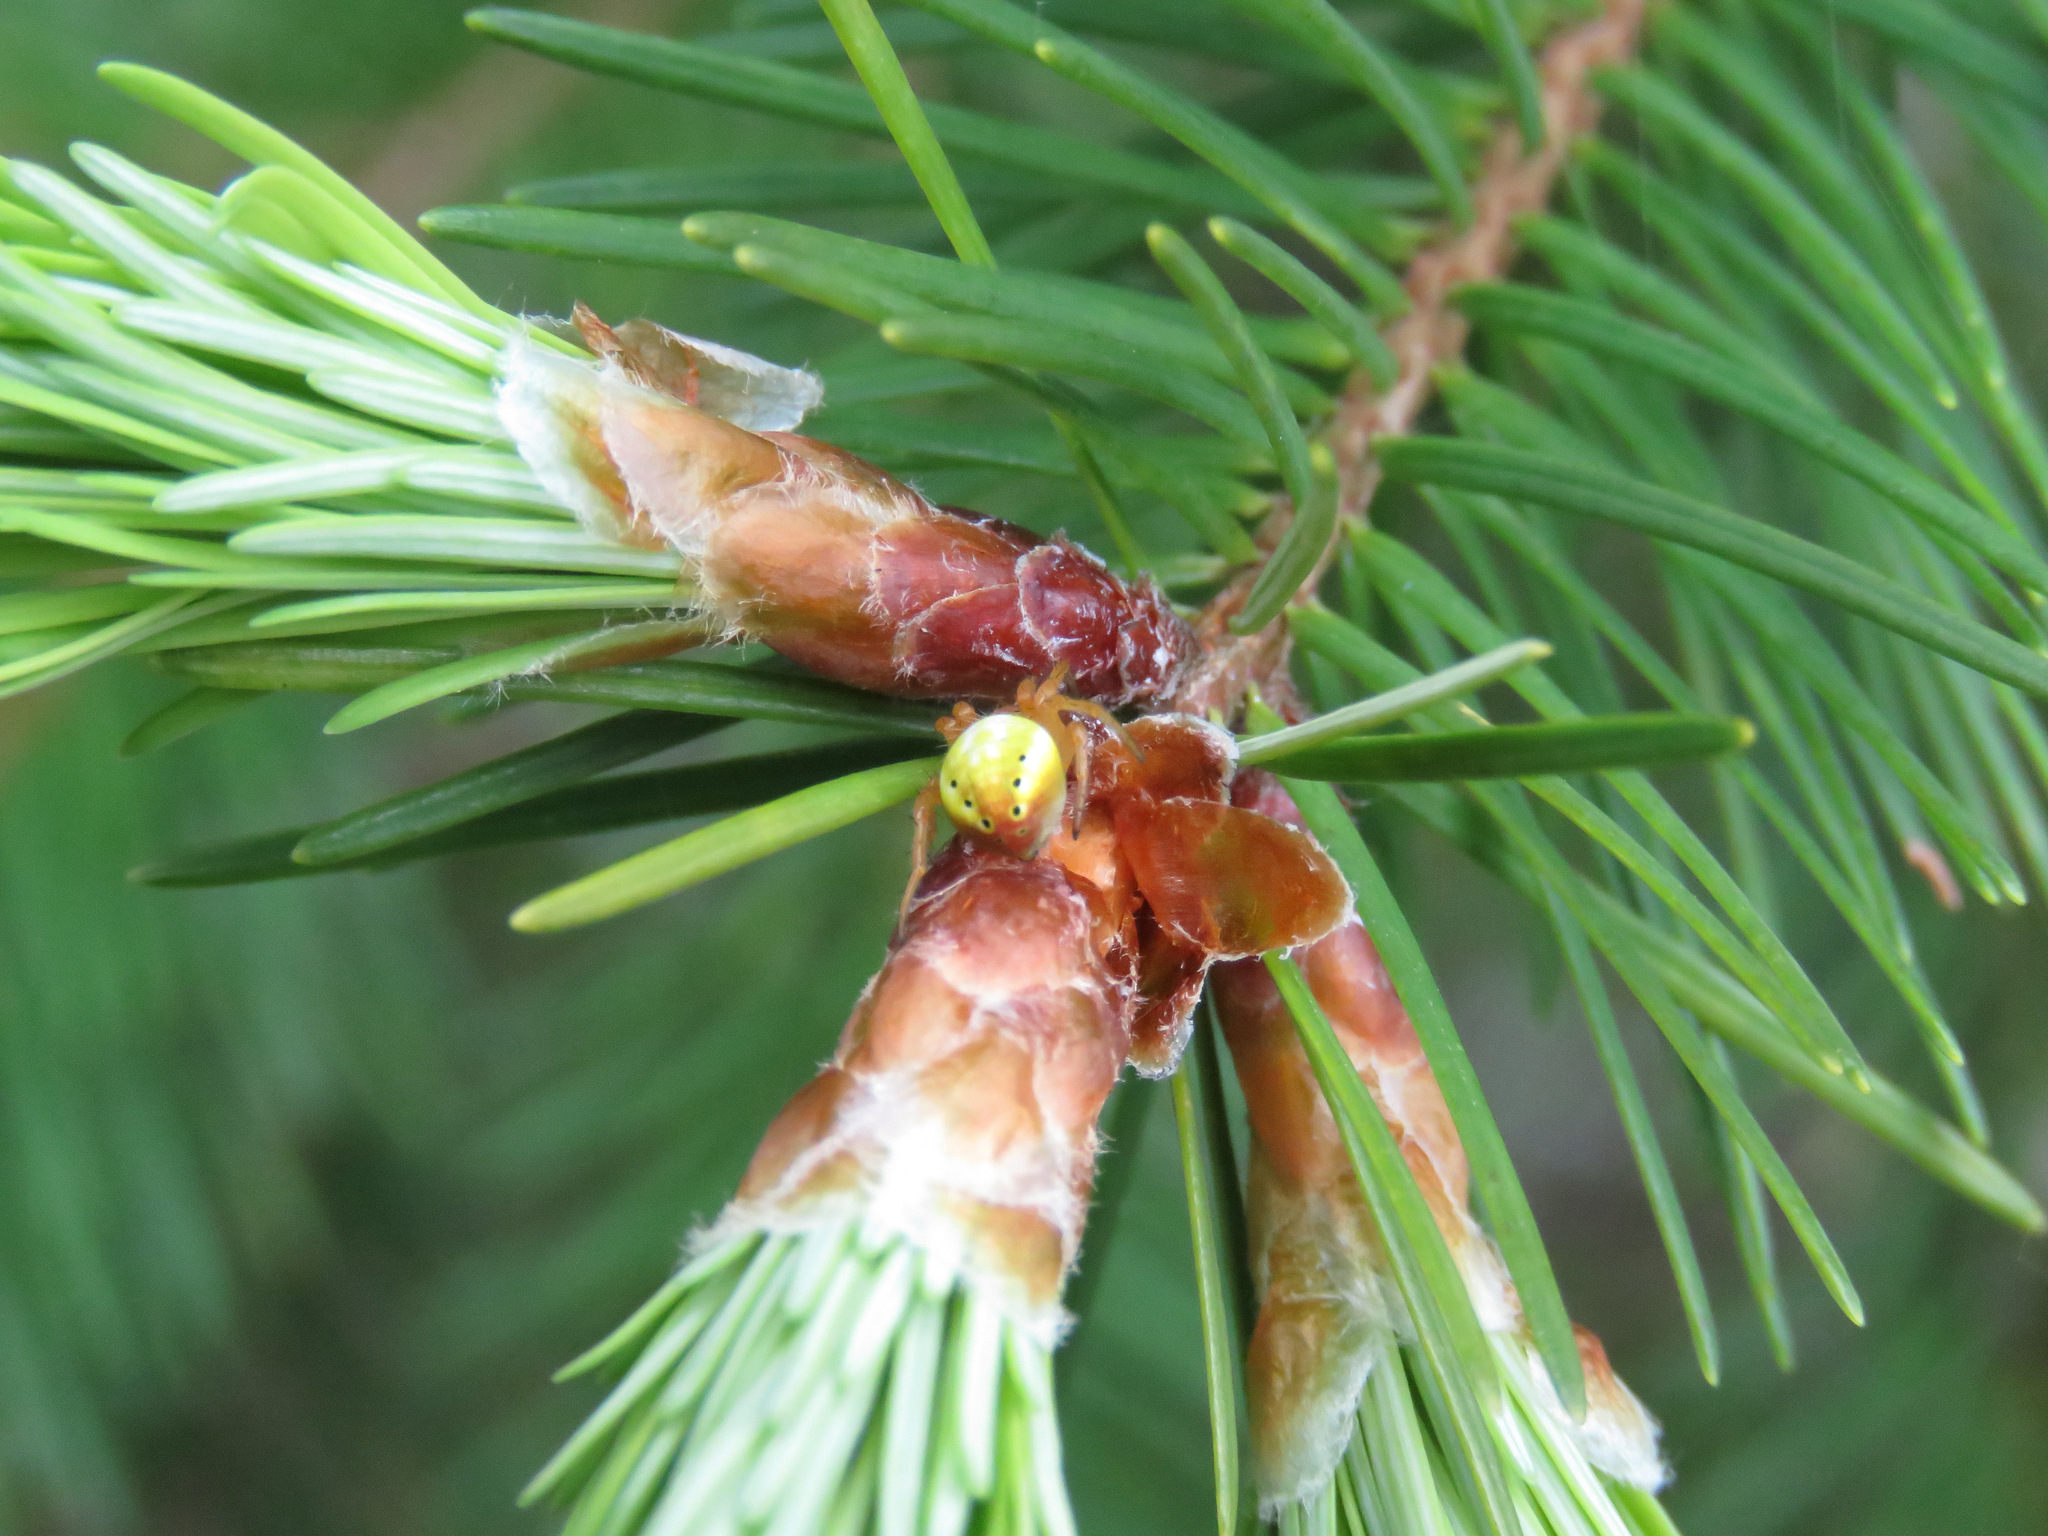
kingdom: Animalia
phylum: Arthropoda
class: Arachnida
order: Araneae
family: Araneidae
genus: Araniella
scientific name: Araniella displicata
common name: Sixspotted orb weaver
